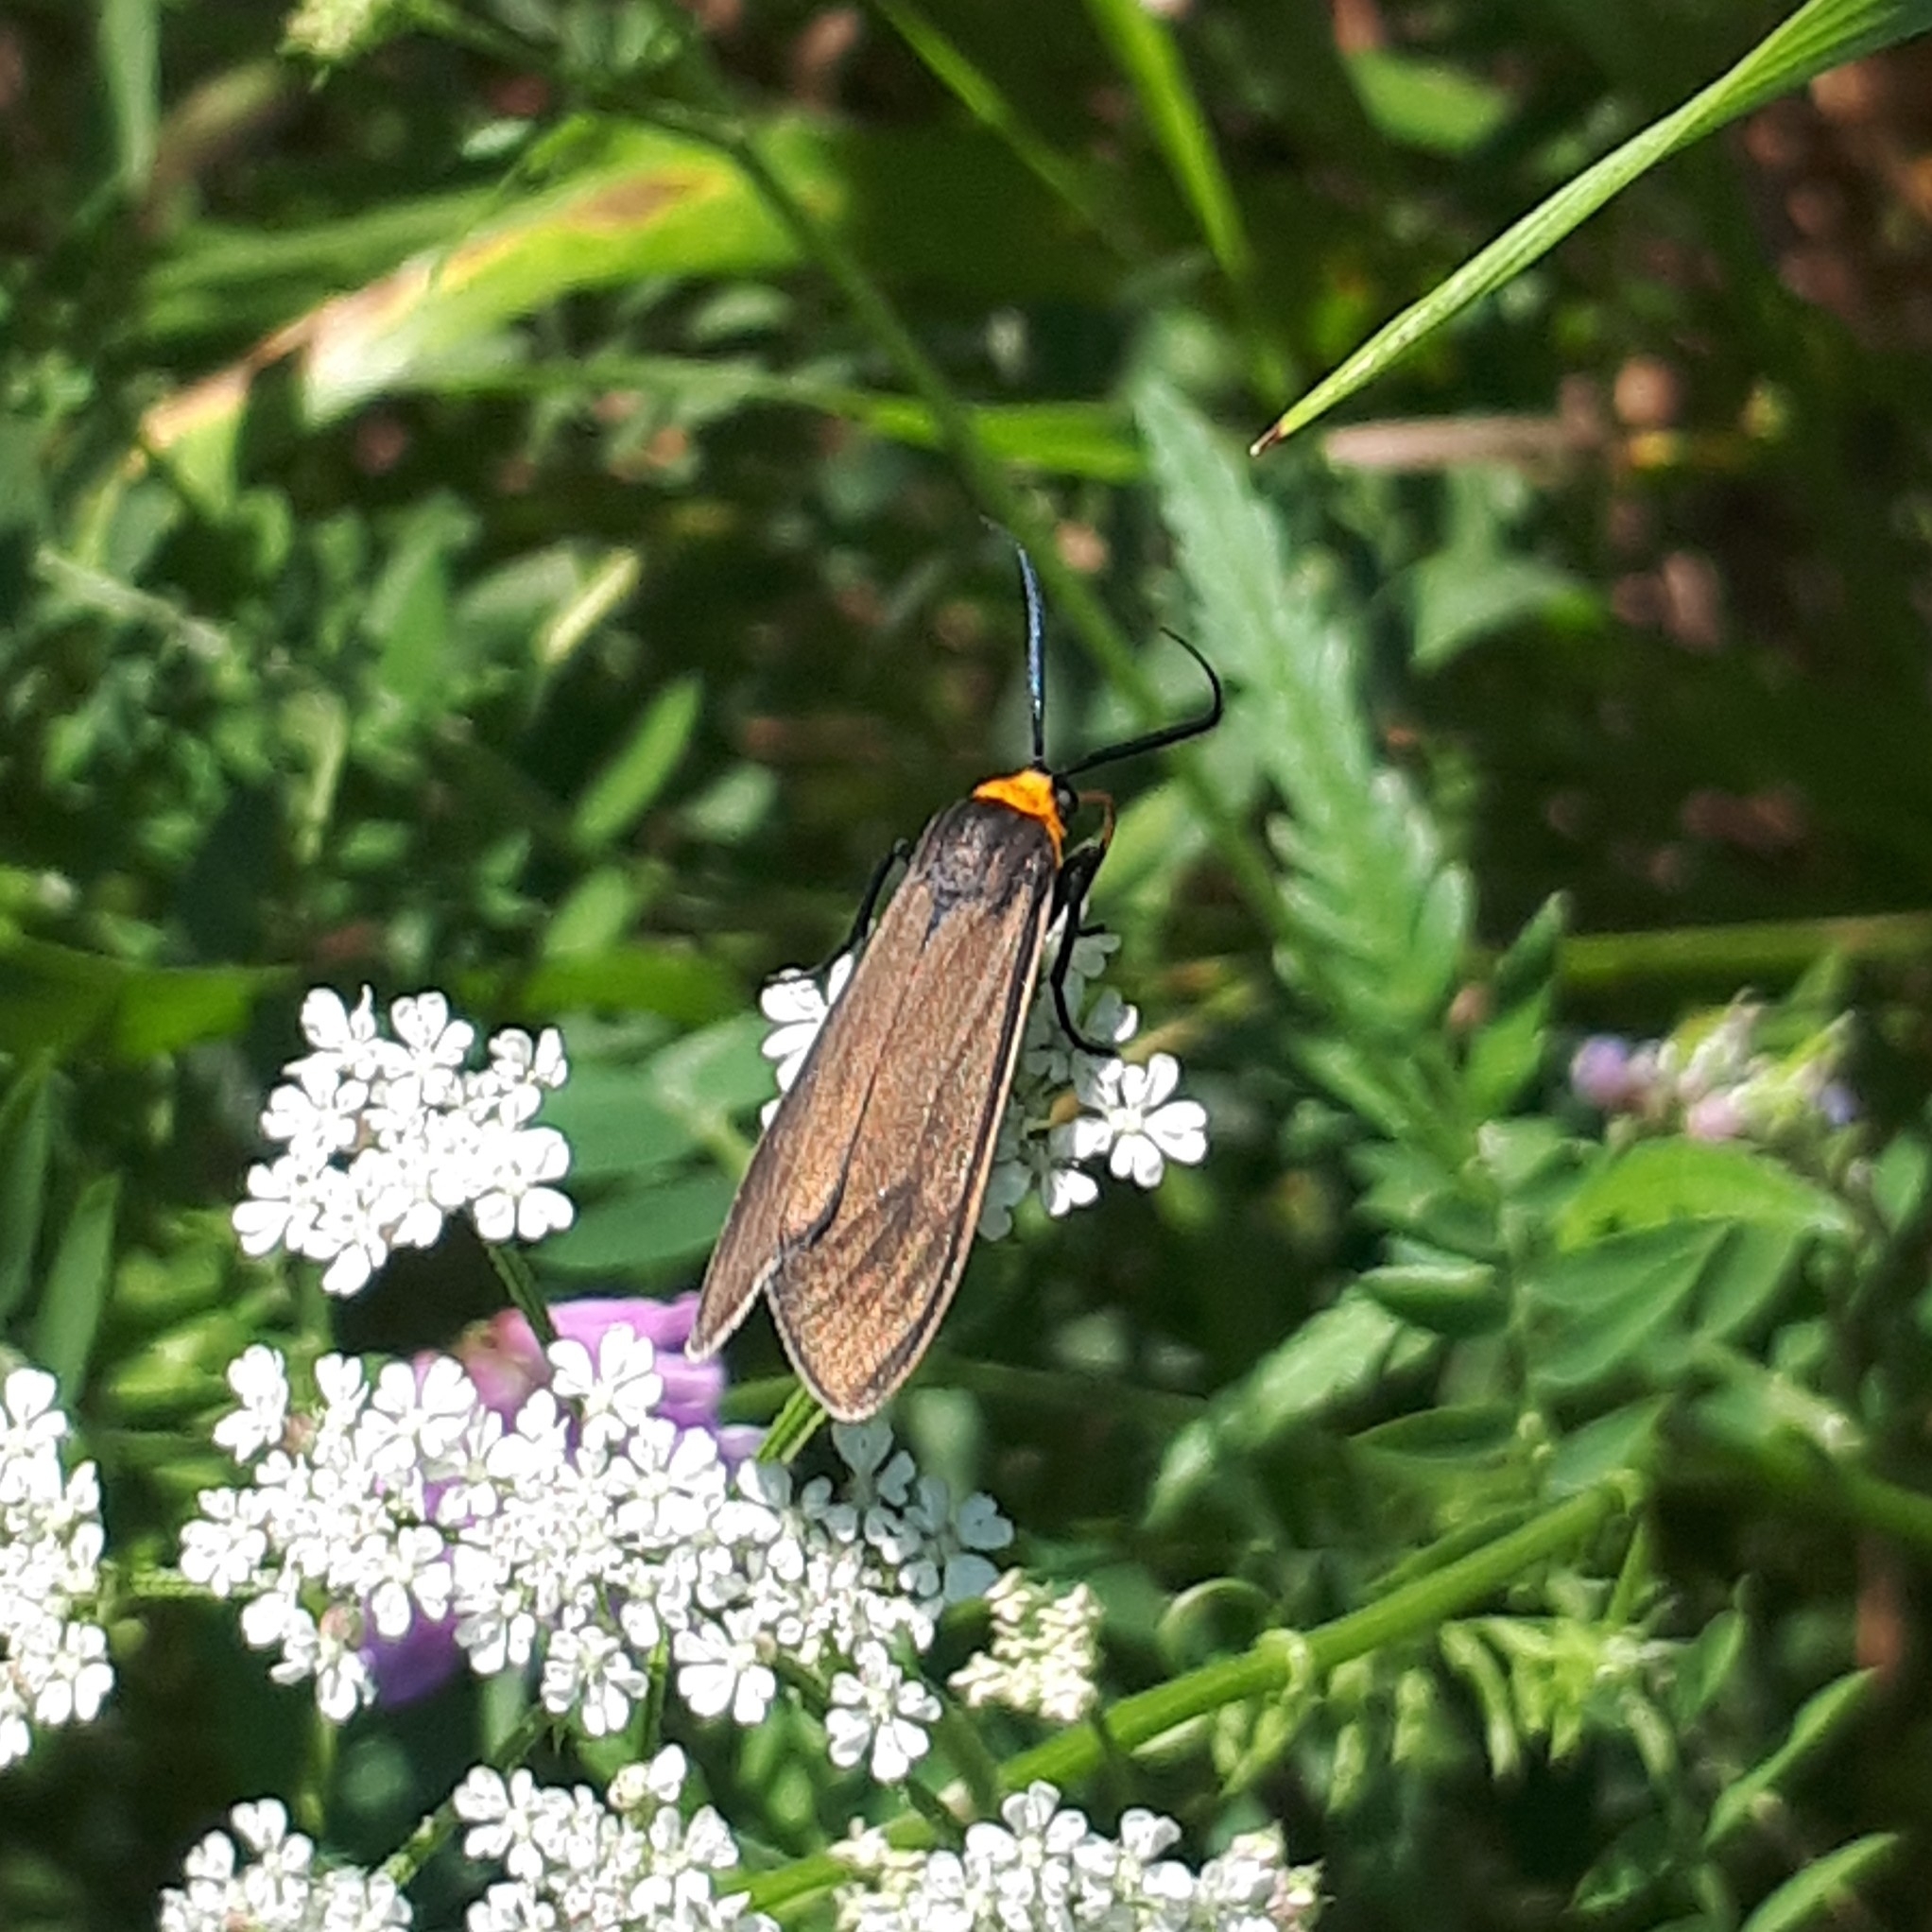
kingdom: Animalia
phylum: Arthropoda
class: Insecta
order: Lepidoptera
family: Erebidae
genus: Cisseps
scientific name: Cisseps fulvicollis
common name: Yellow-collared scape moth
